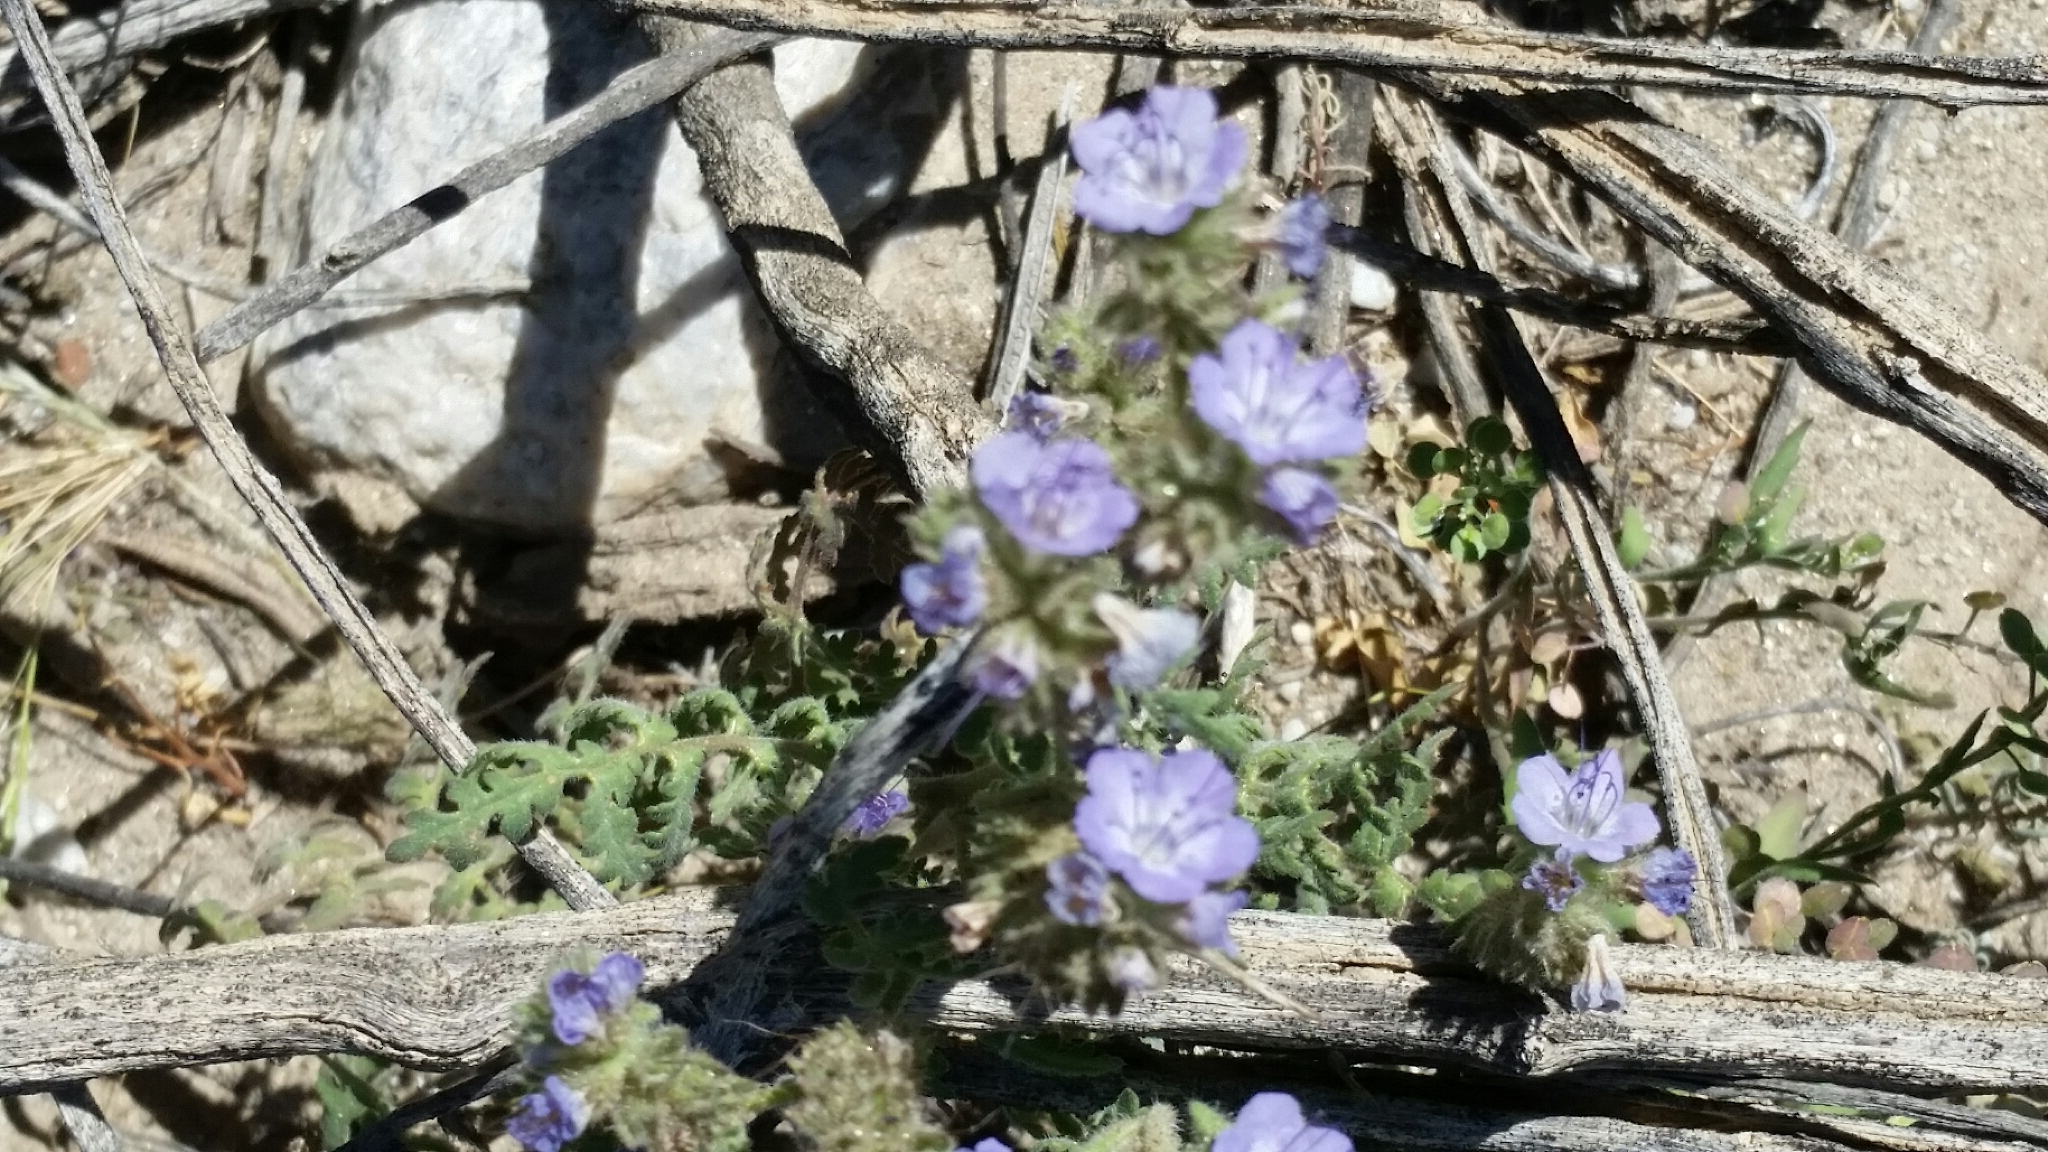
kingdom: Plantae
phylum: Tracheophyta
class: Magnoliopsida
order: Boraginales
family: Hydrophyllaceae
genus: Phacelia
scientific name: Phacelia distans
